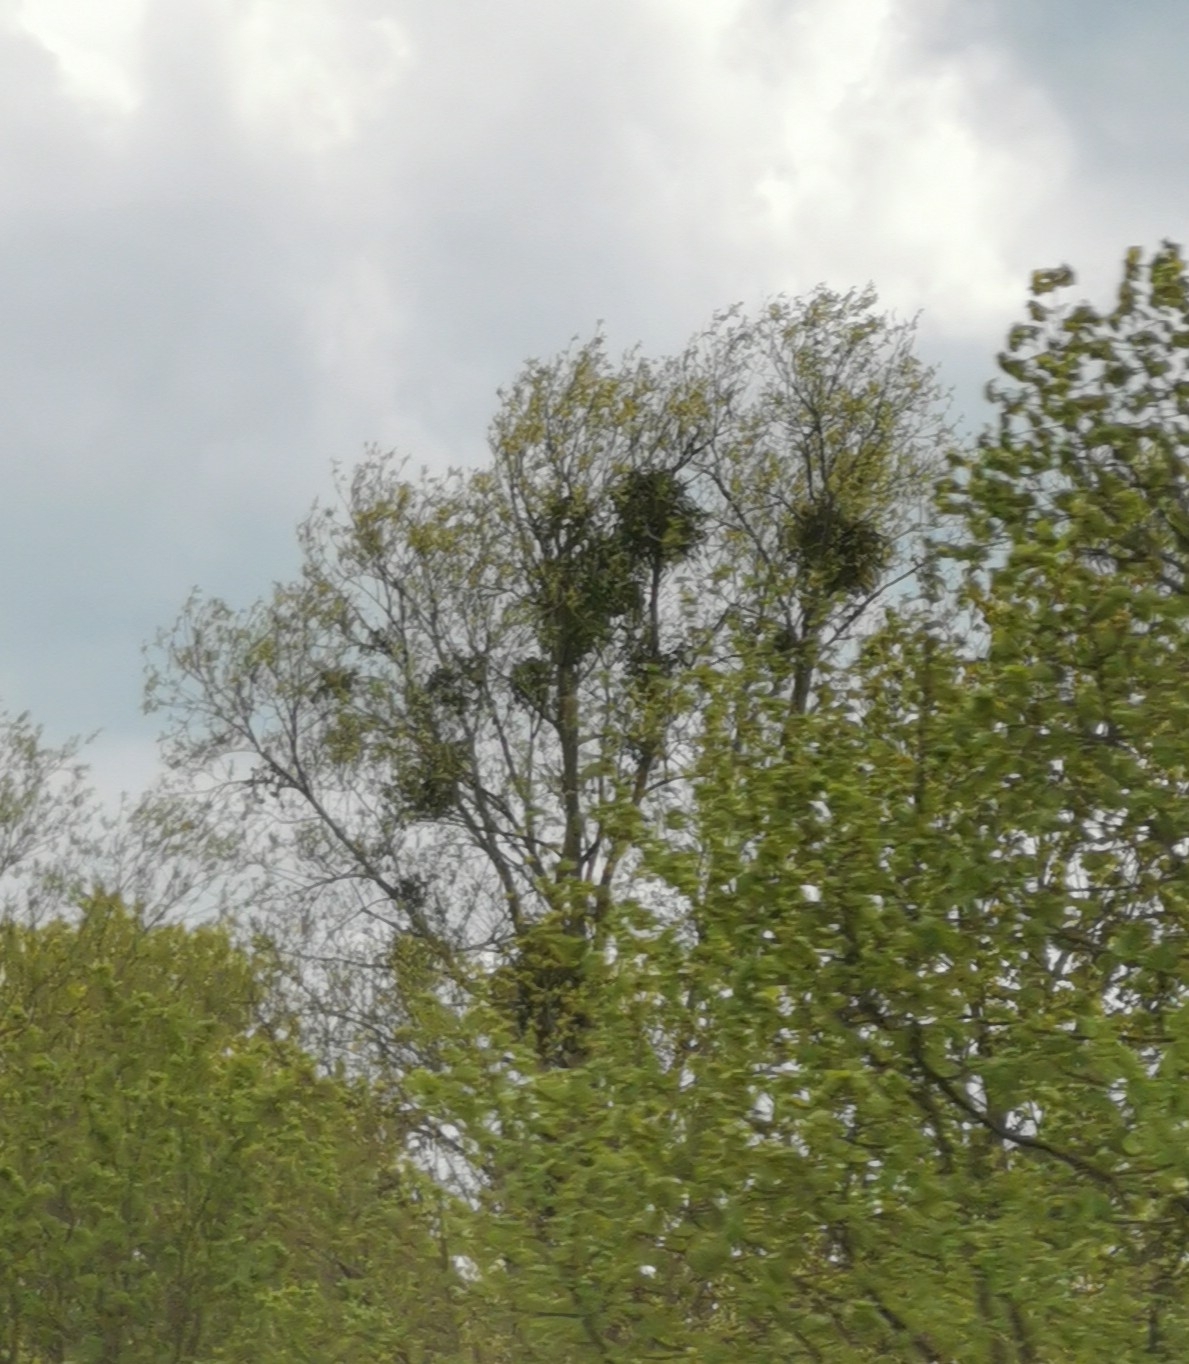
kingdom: Plantae
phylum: Tracheophyta
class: Magnoliopsida
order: Santalales
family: Viscaceae
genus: Viscum
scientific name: Viscum album
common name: Mistletoe
